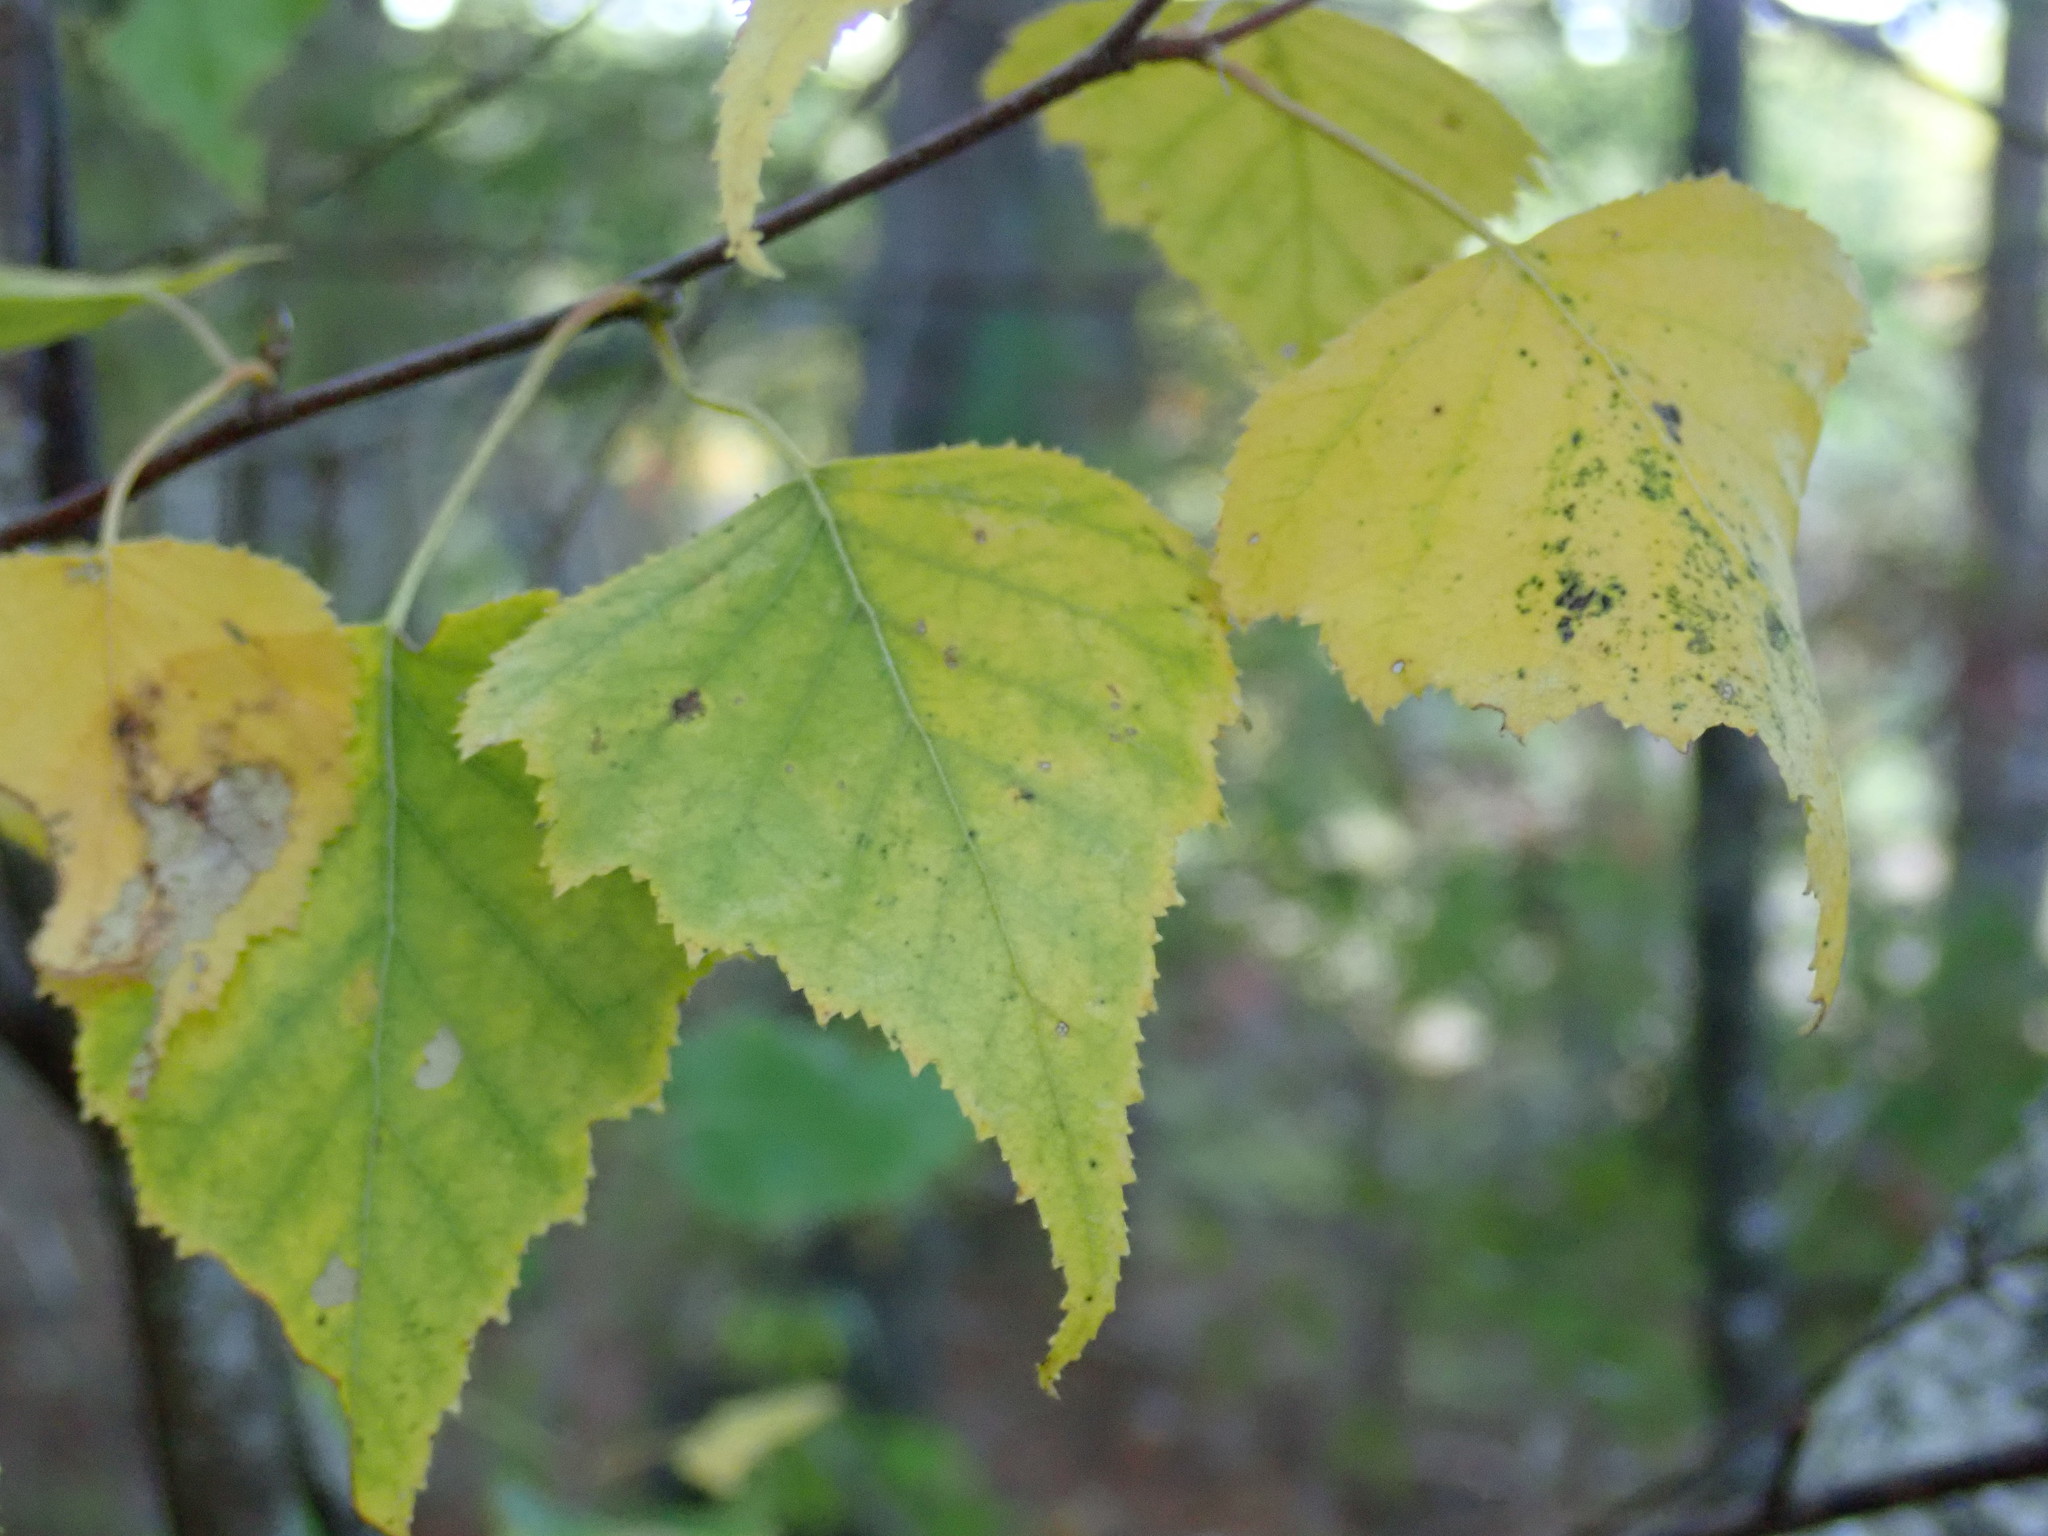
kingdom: Plantae
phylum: Tracheophyta
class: Magnoliopsida
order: Fagales
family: Betulaceae
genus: Betula
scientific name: Betula populifolia
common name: Fire birch
